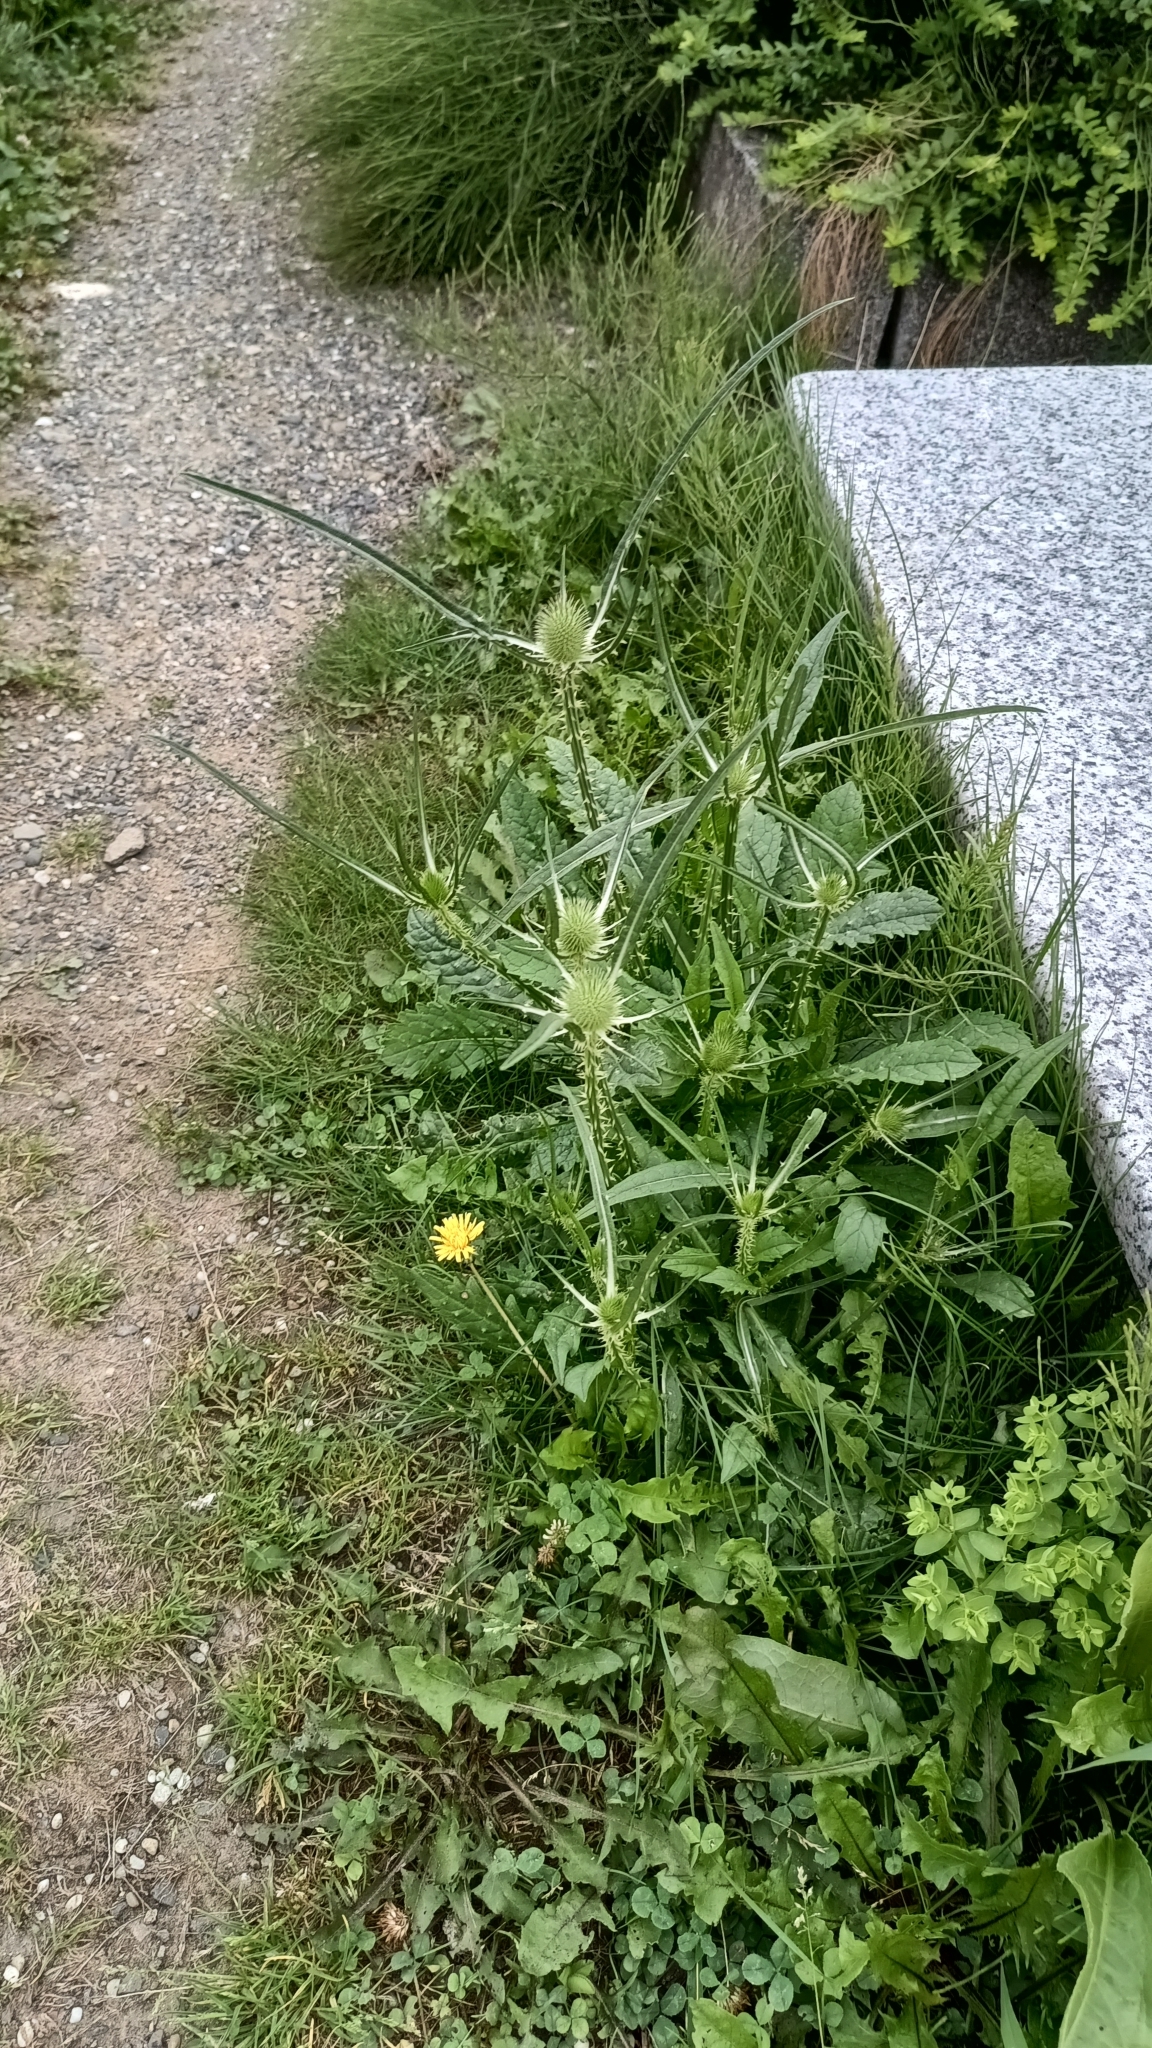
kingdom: Plantae
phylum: Tracheophyta
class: Magnoliopsida
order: Dipsacales
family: Caprifoliaceae
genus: Dipsacus
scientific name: Dipsacus fullonum
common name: Teasel
